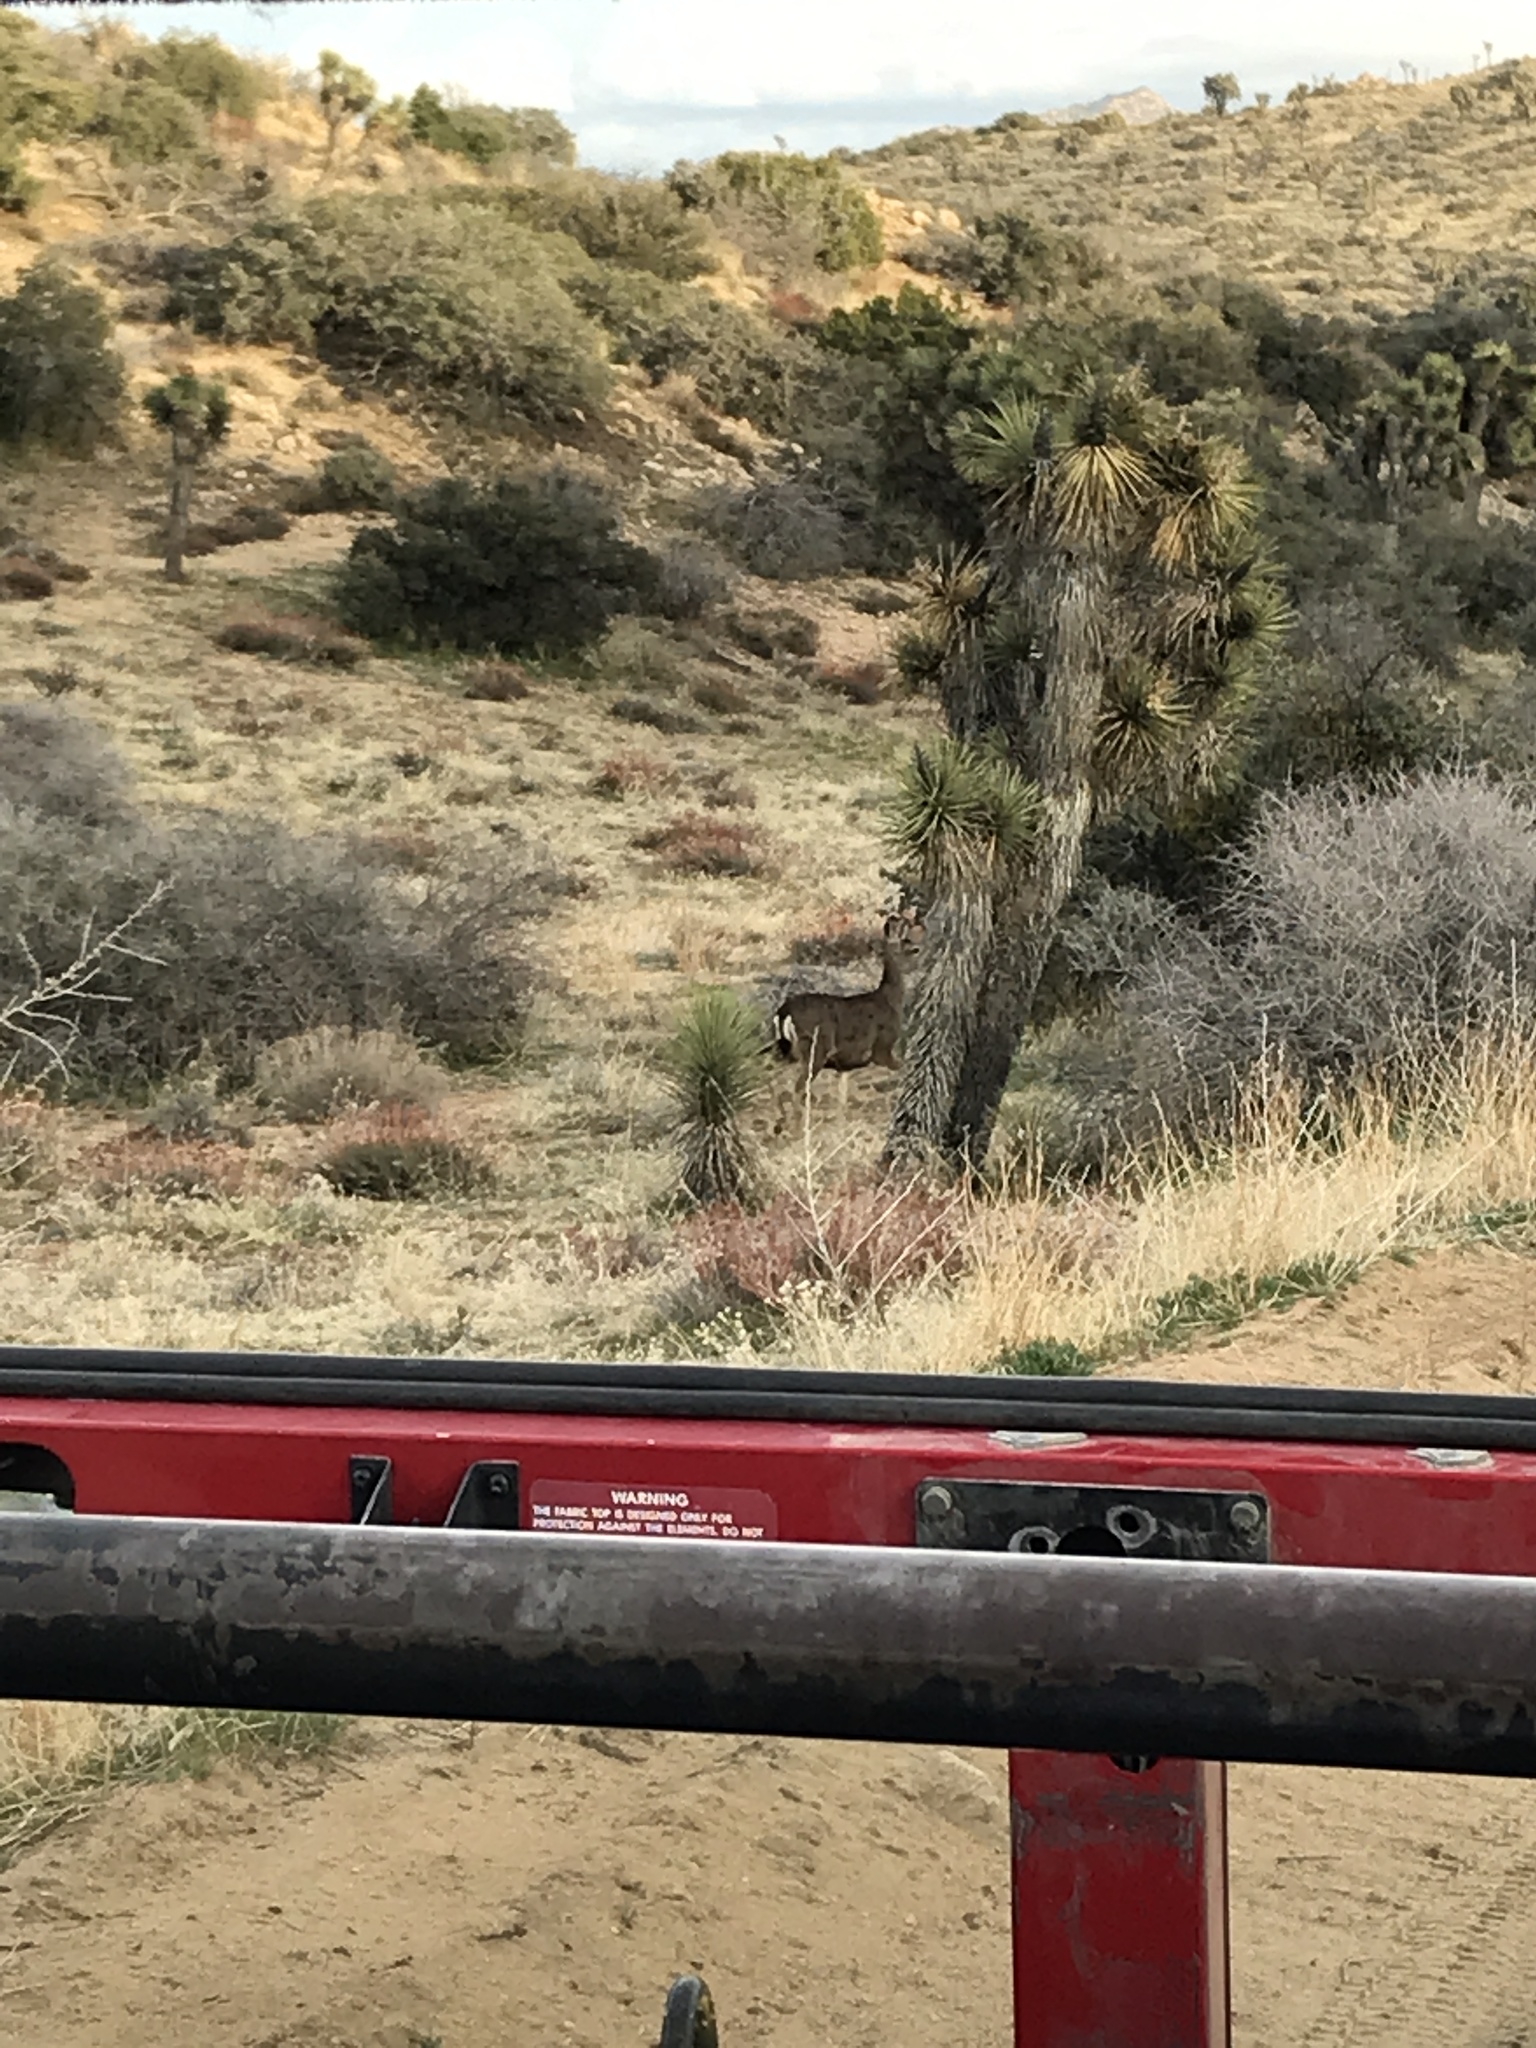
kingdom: Animalia
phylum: Chordata
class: Mammalia
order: Artiodactyla
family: Cervidae
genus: Odocoileus
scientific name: Odocoileus hemionus
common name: Mule deer
